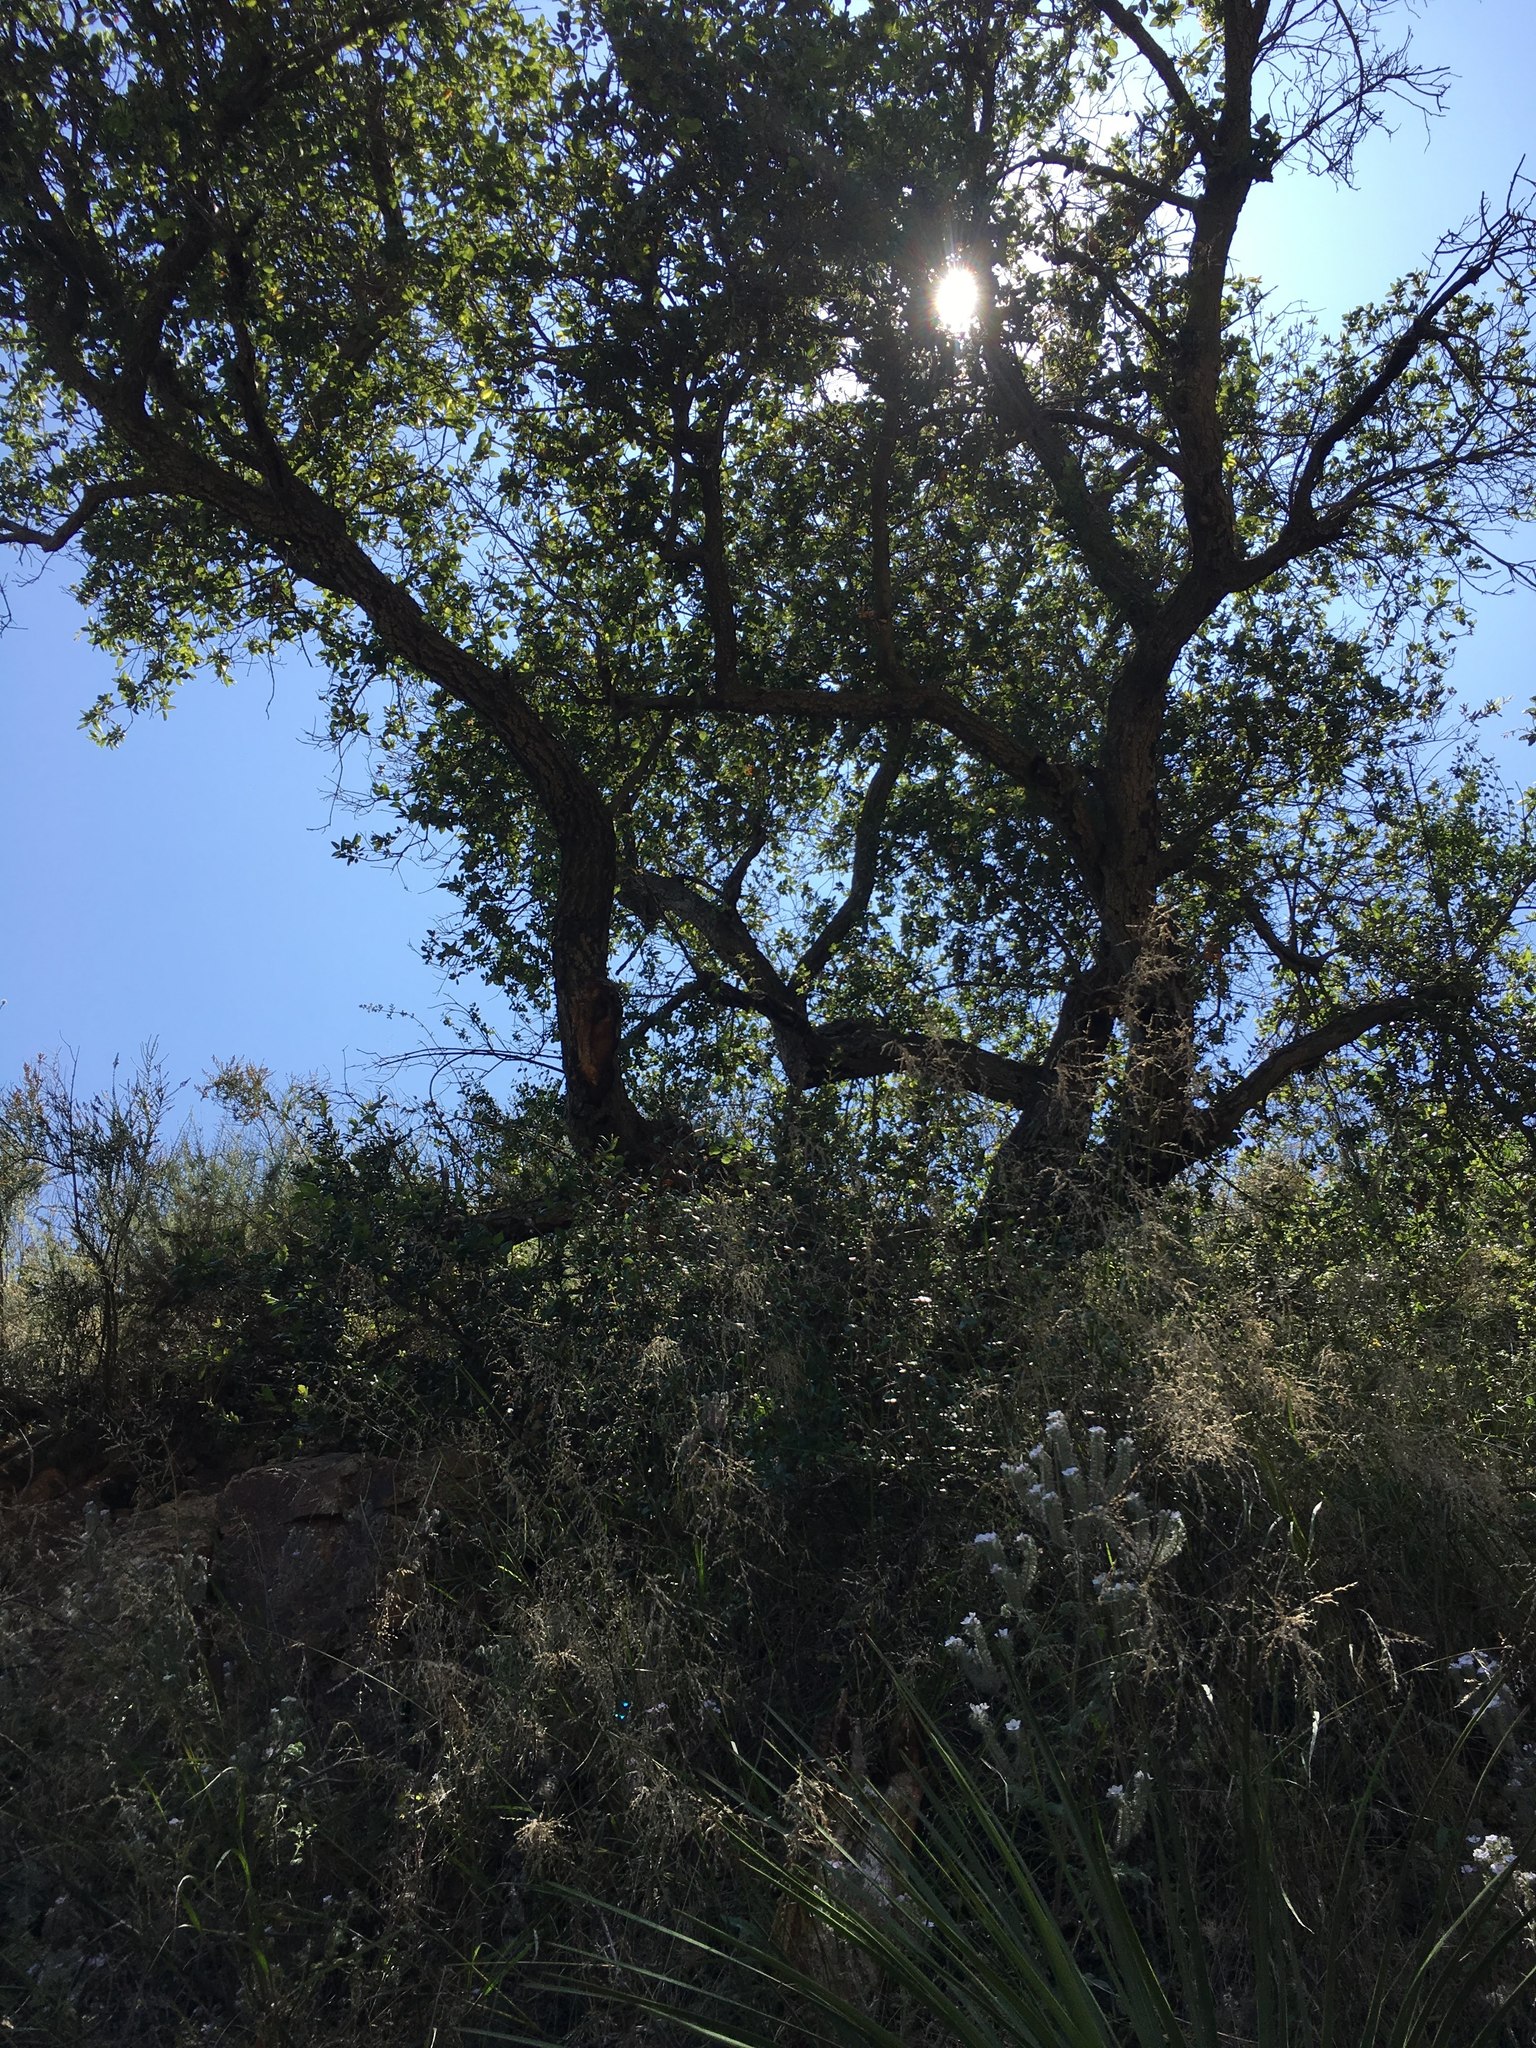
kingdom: Plantae
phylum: Tracheophyta
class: Magnoliopsida
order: Fagales
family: Fagaceae
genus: Quercus
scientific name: Quercus agrifolia
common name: California live oak
